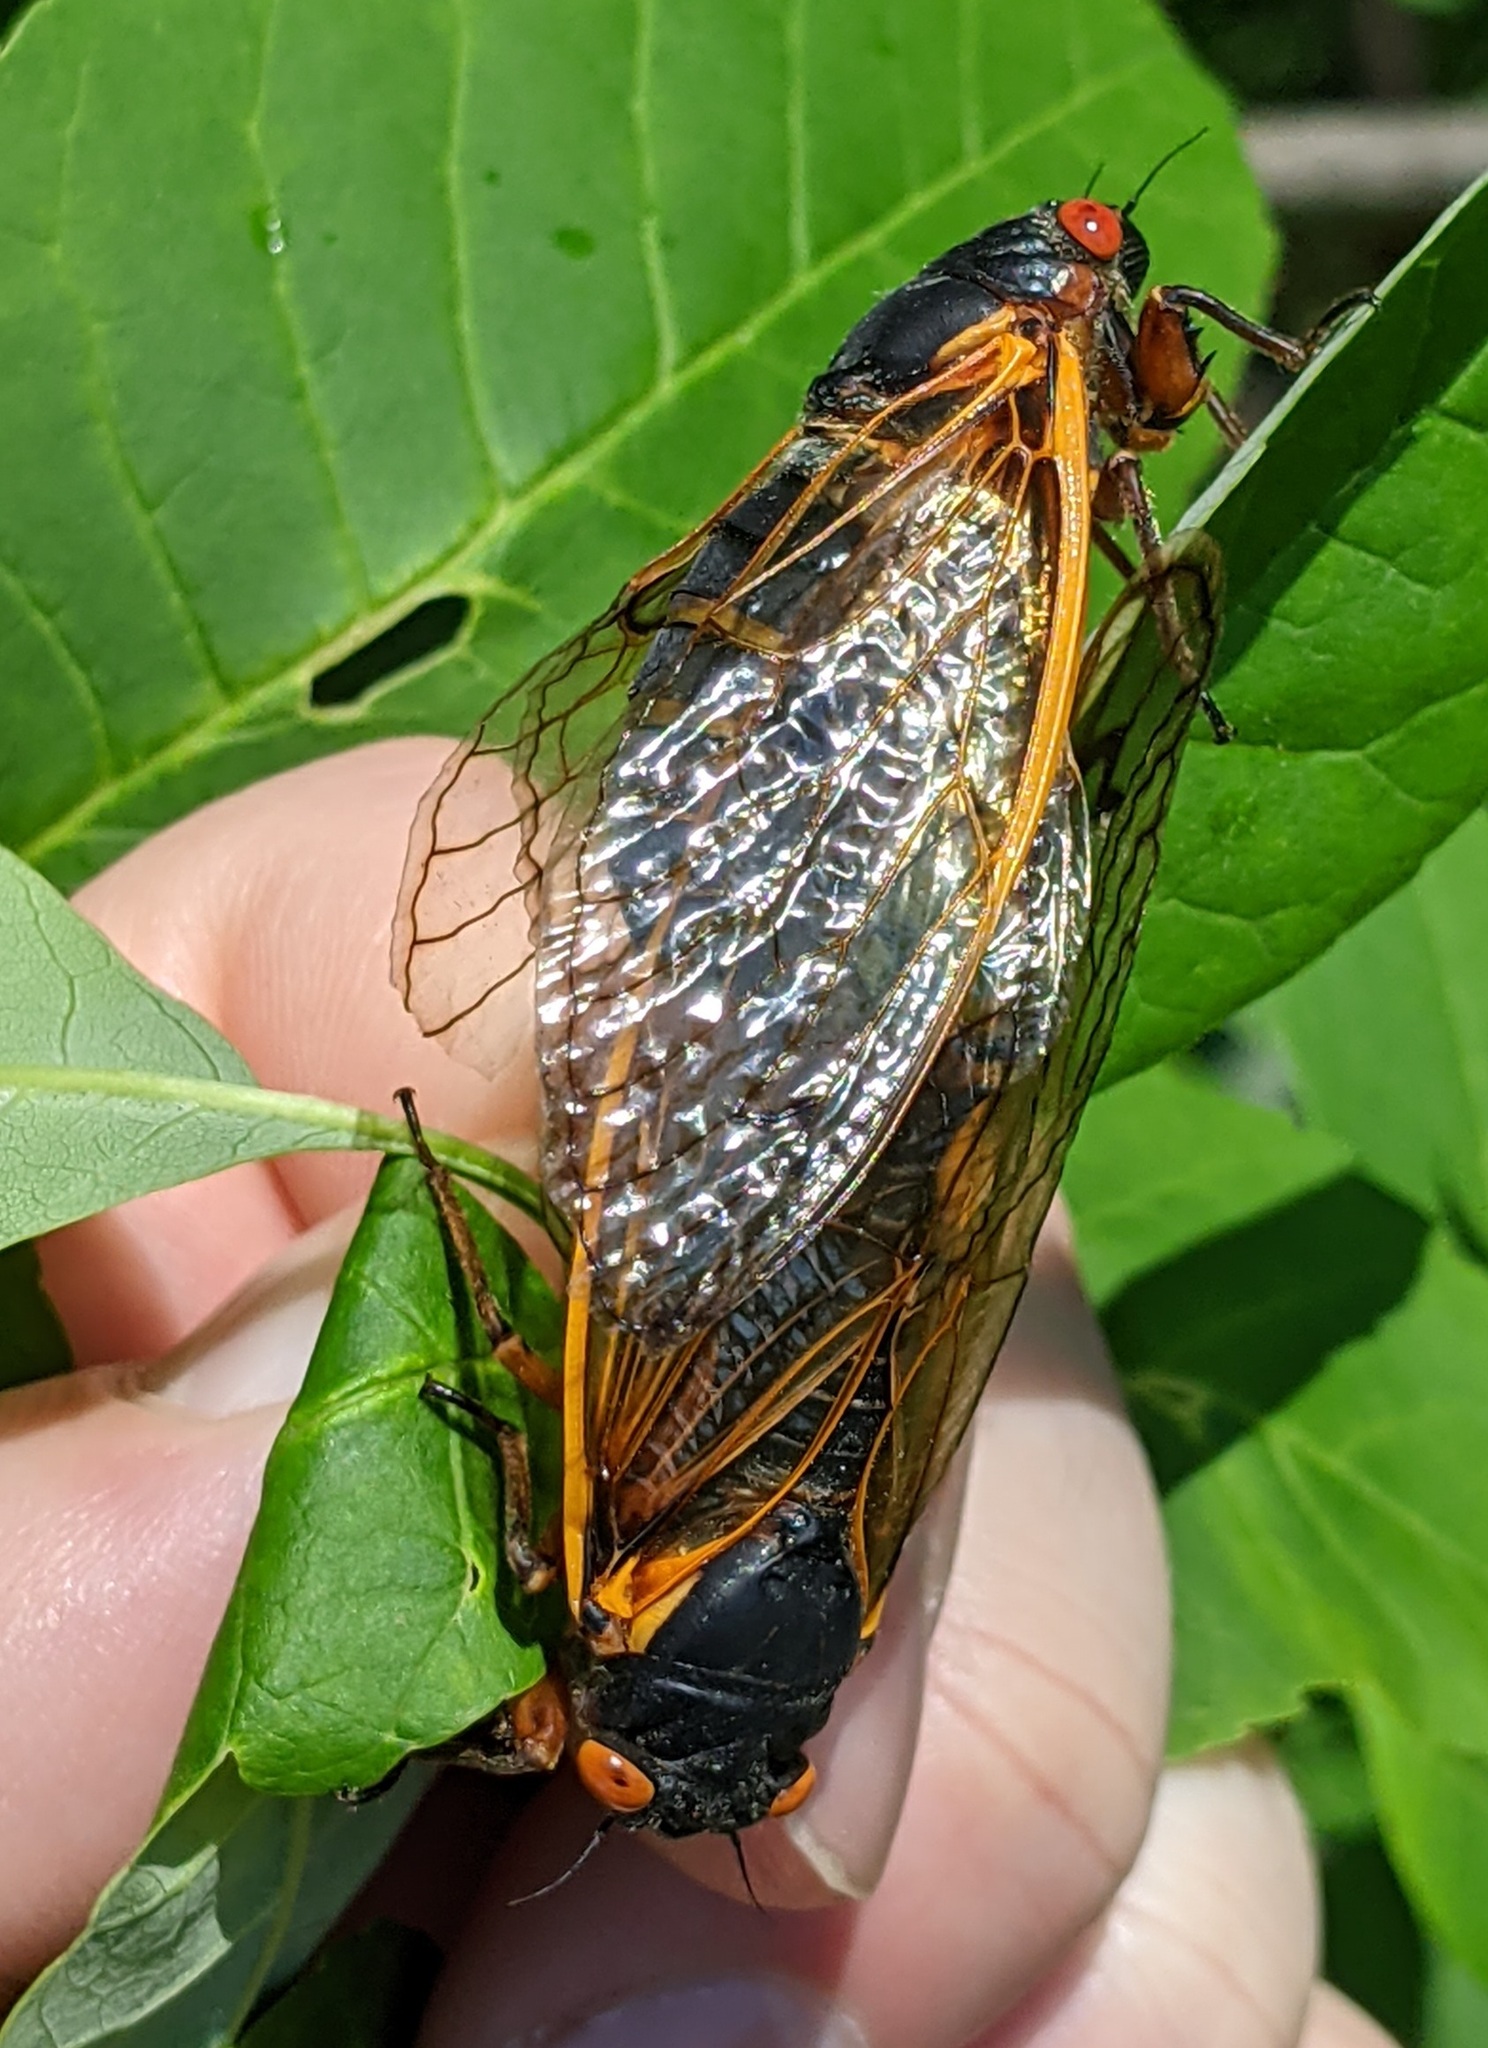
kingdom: Animalia
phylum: Arthropoda
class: Insecta
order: Hemiptera
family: Cicadidae
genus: Magicicada
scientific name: Magicicada septendecim
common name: Periodical cicada
